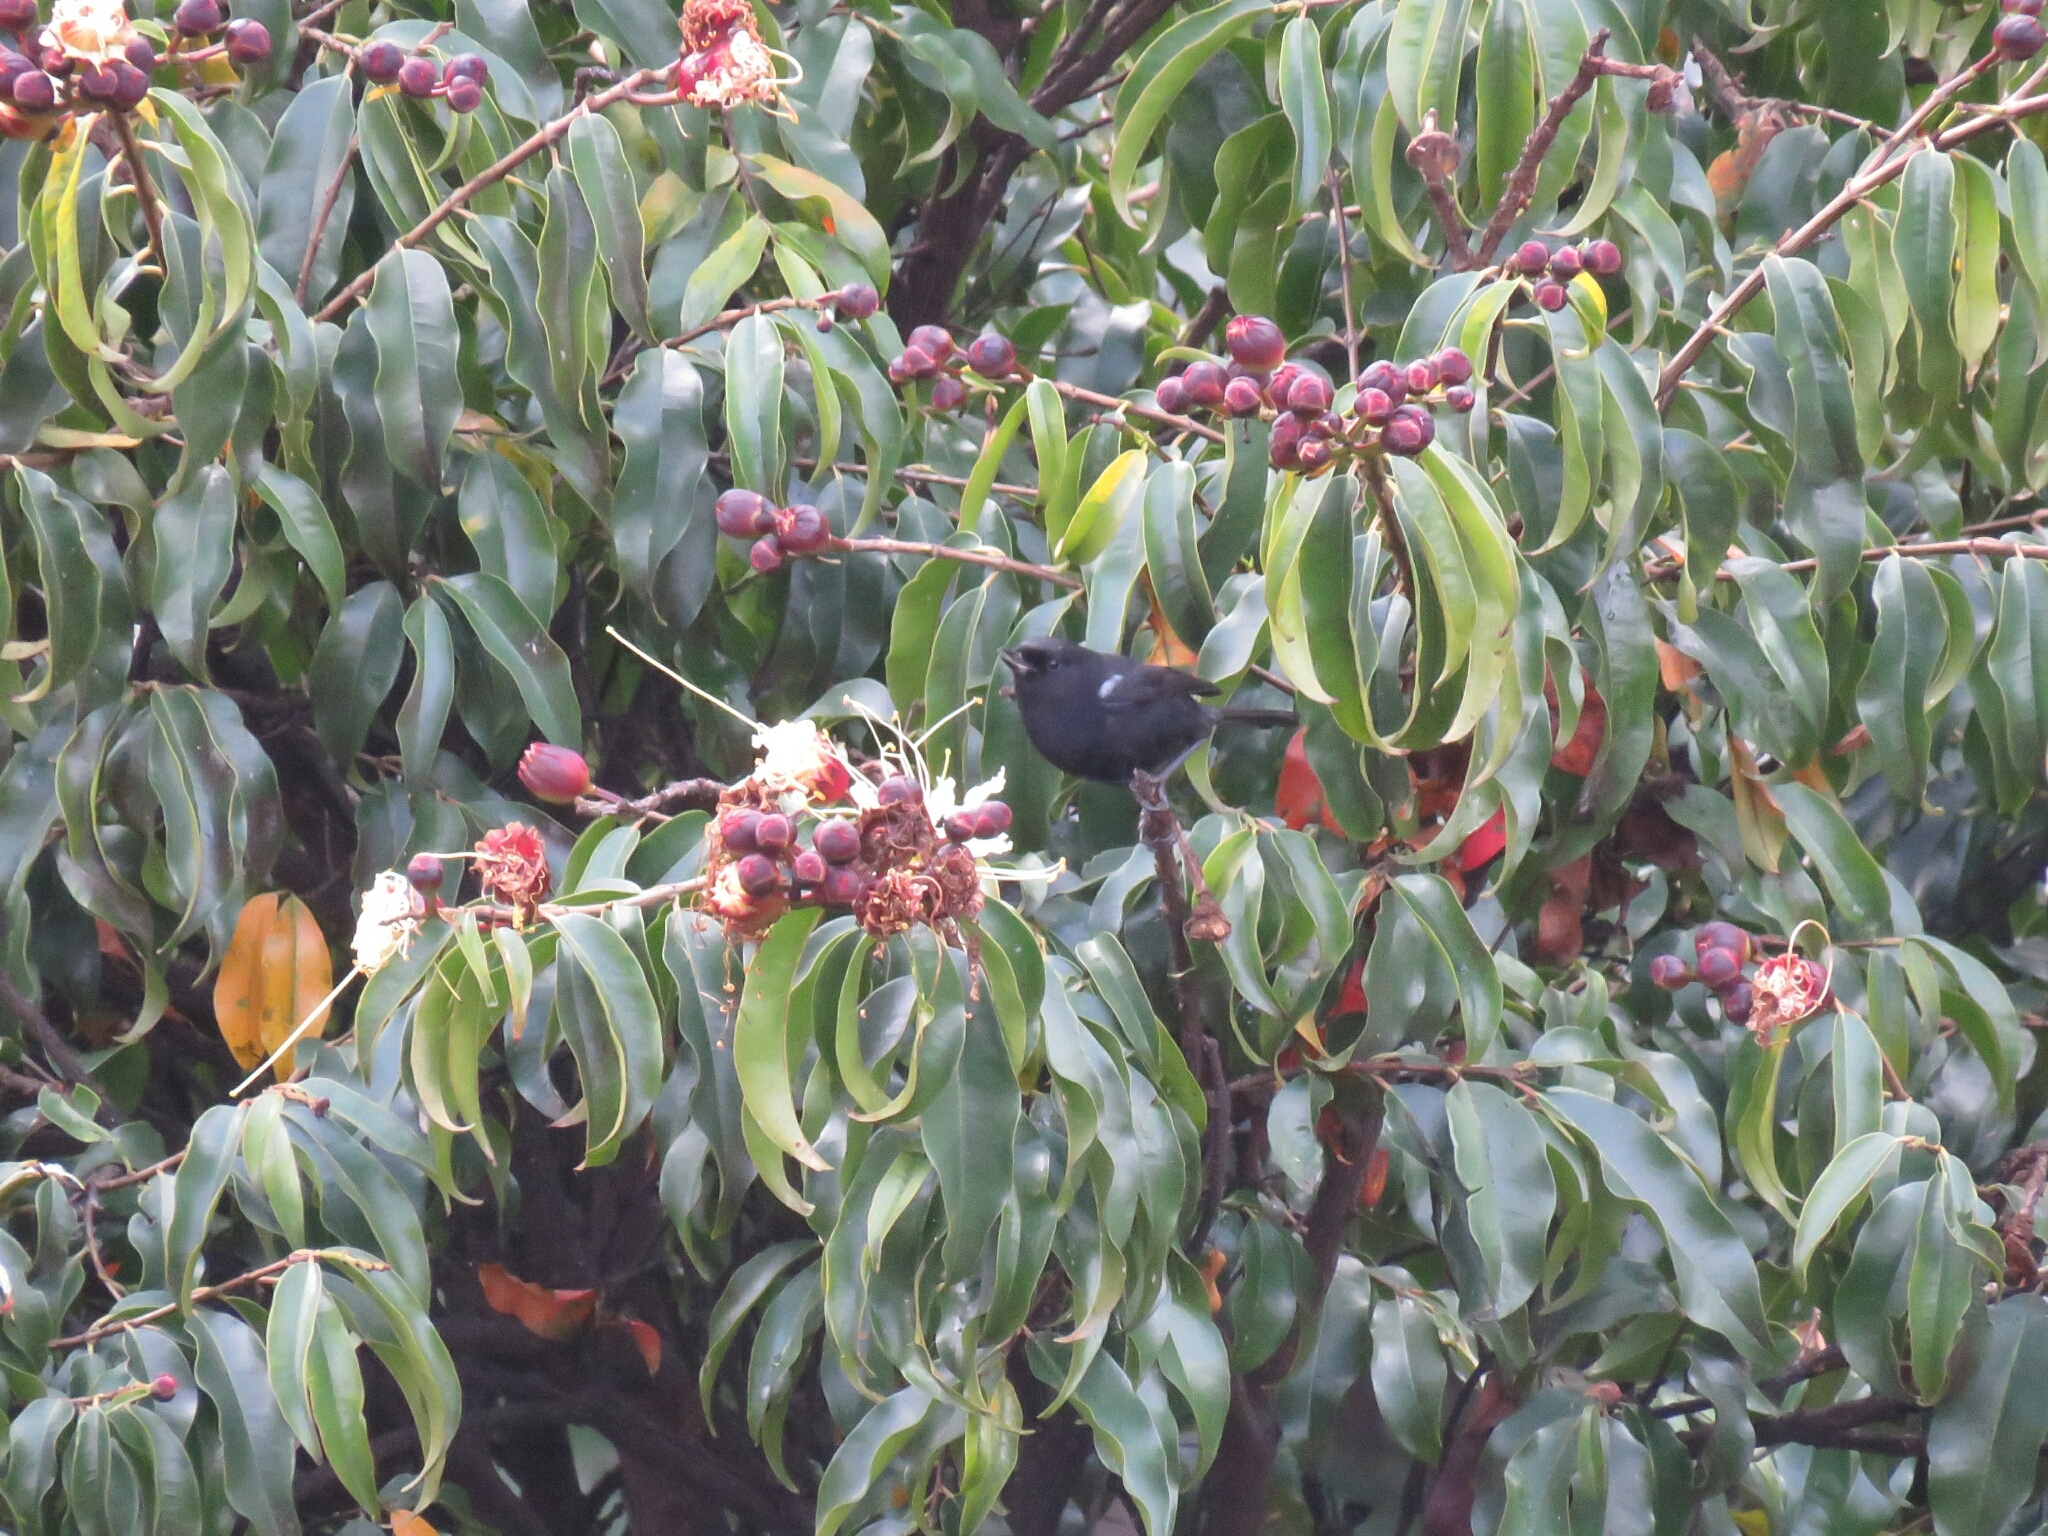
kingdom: Animalia
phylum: Chordata
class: Aves
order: Passeriformes
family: Thraupidae
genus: Diglossa
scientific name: Diglossa humeralis
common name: Black flowerpiercer
